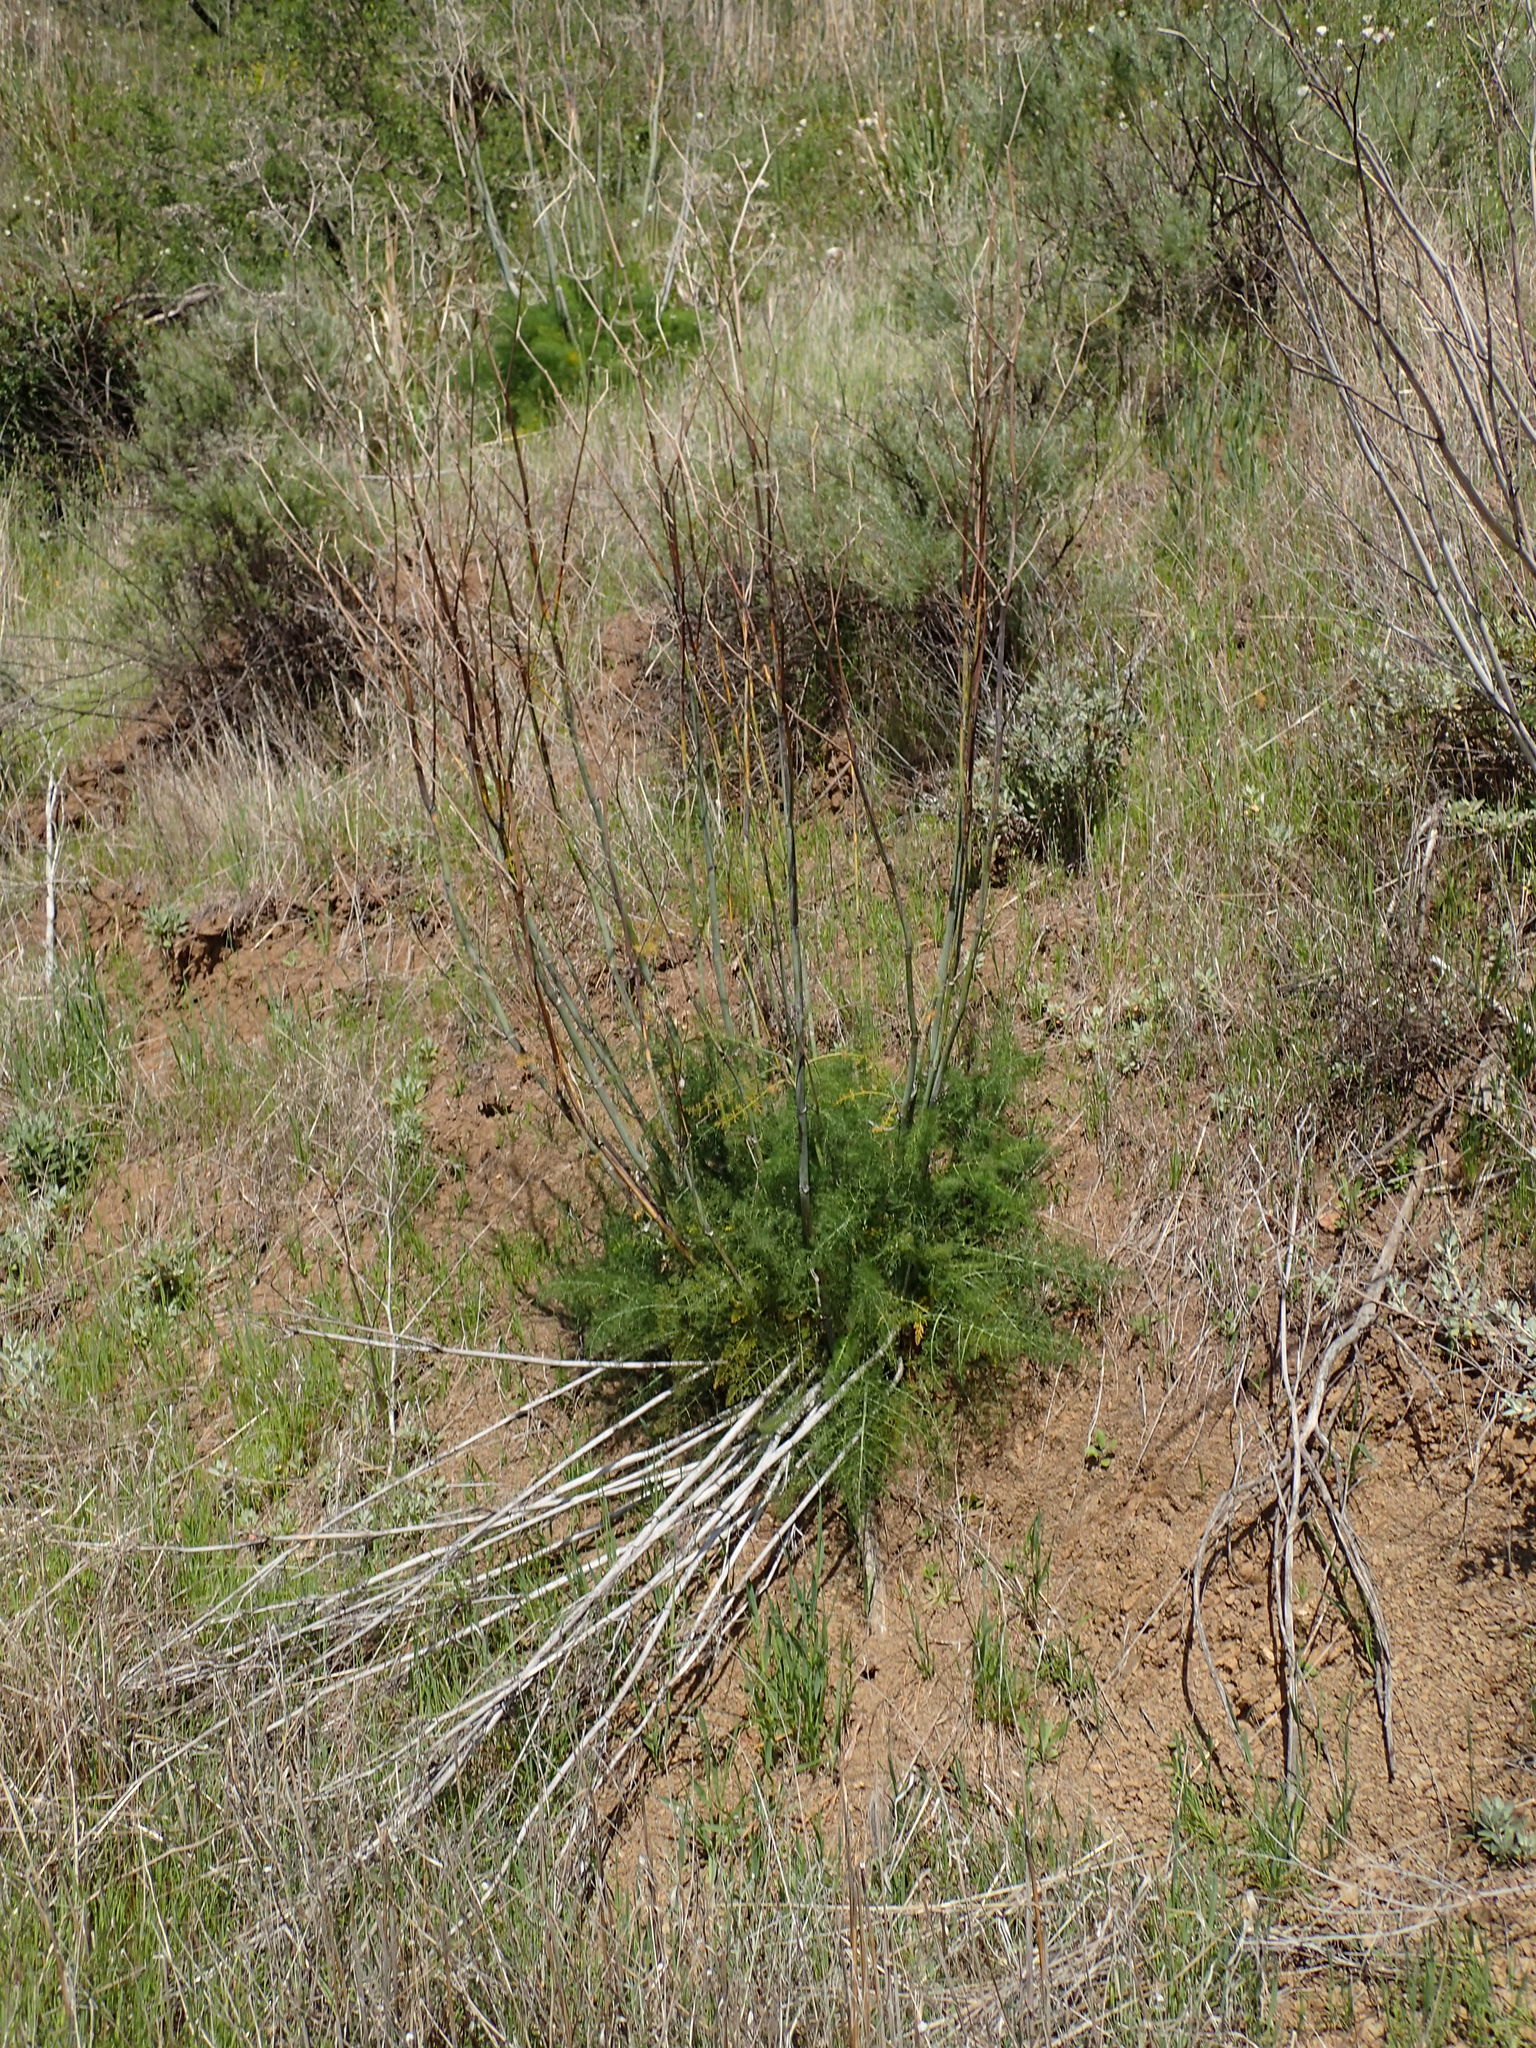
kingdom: Plantae
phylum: Tracheophyta
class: Magnoliopsida
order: Apiales
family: Apiaceae
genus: Foeniculum
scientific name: Foeniculum vulgare
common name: Fennel
